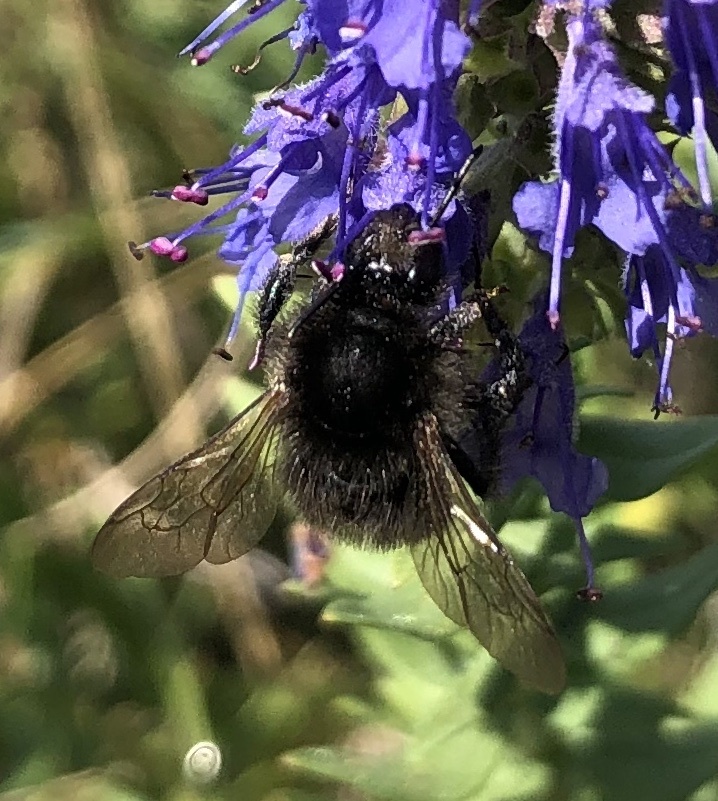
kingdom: Animalia
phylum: Arthropoda
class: Insecta
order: Hymenoptera
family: Apidae
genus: Bombus
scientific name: Bombus humilis
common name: Brown-banded carder-bee
